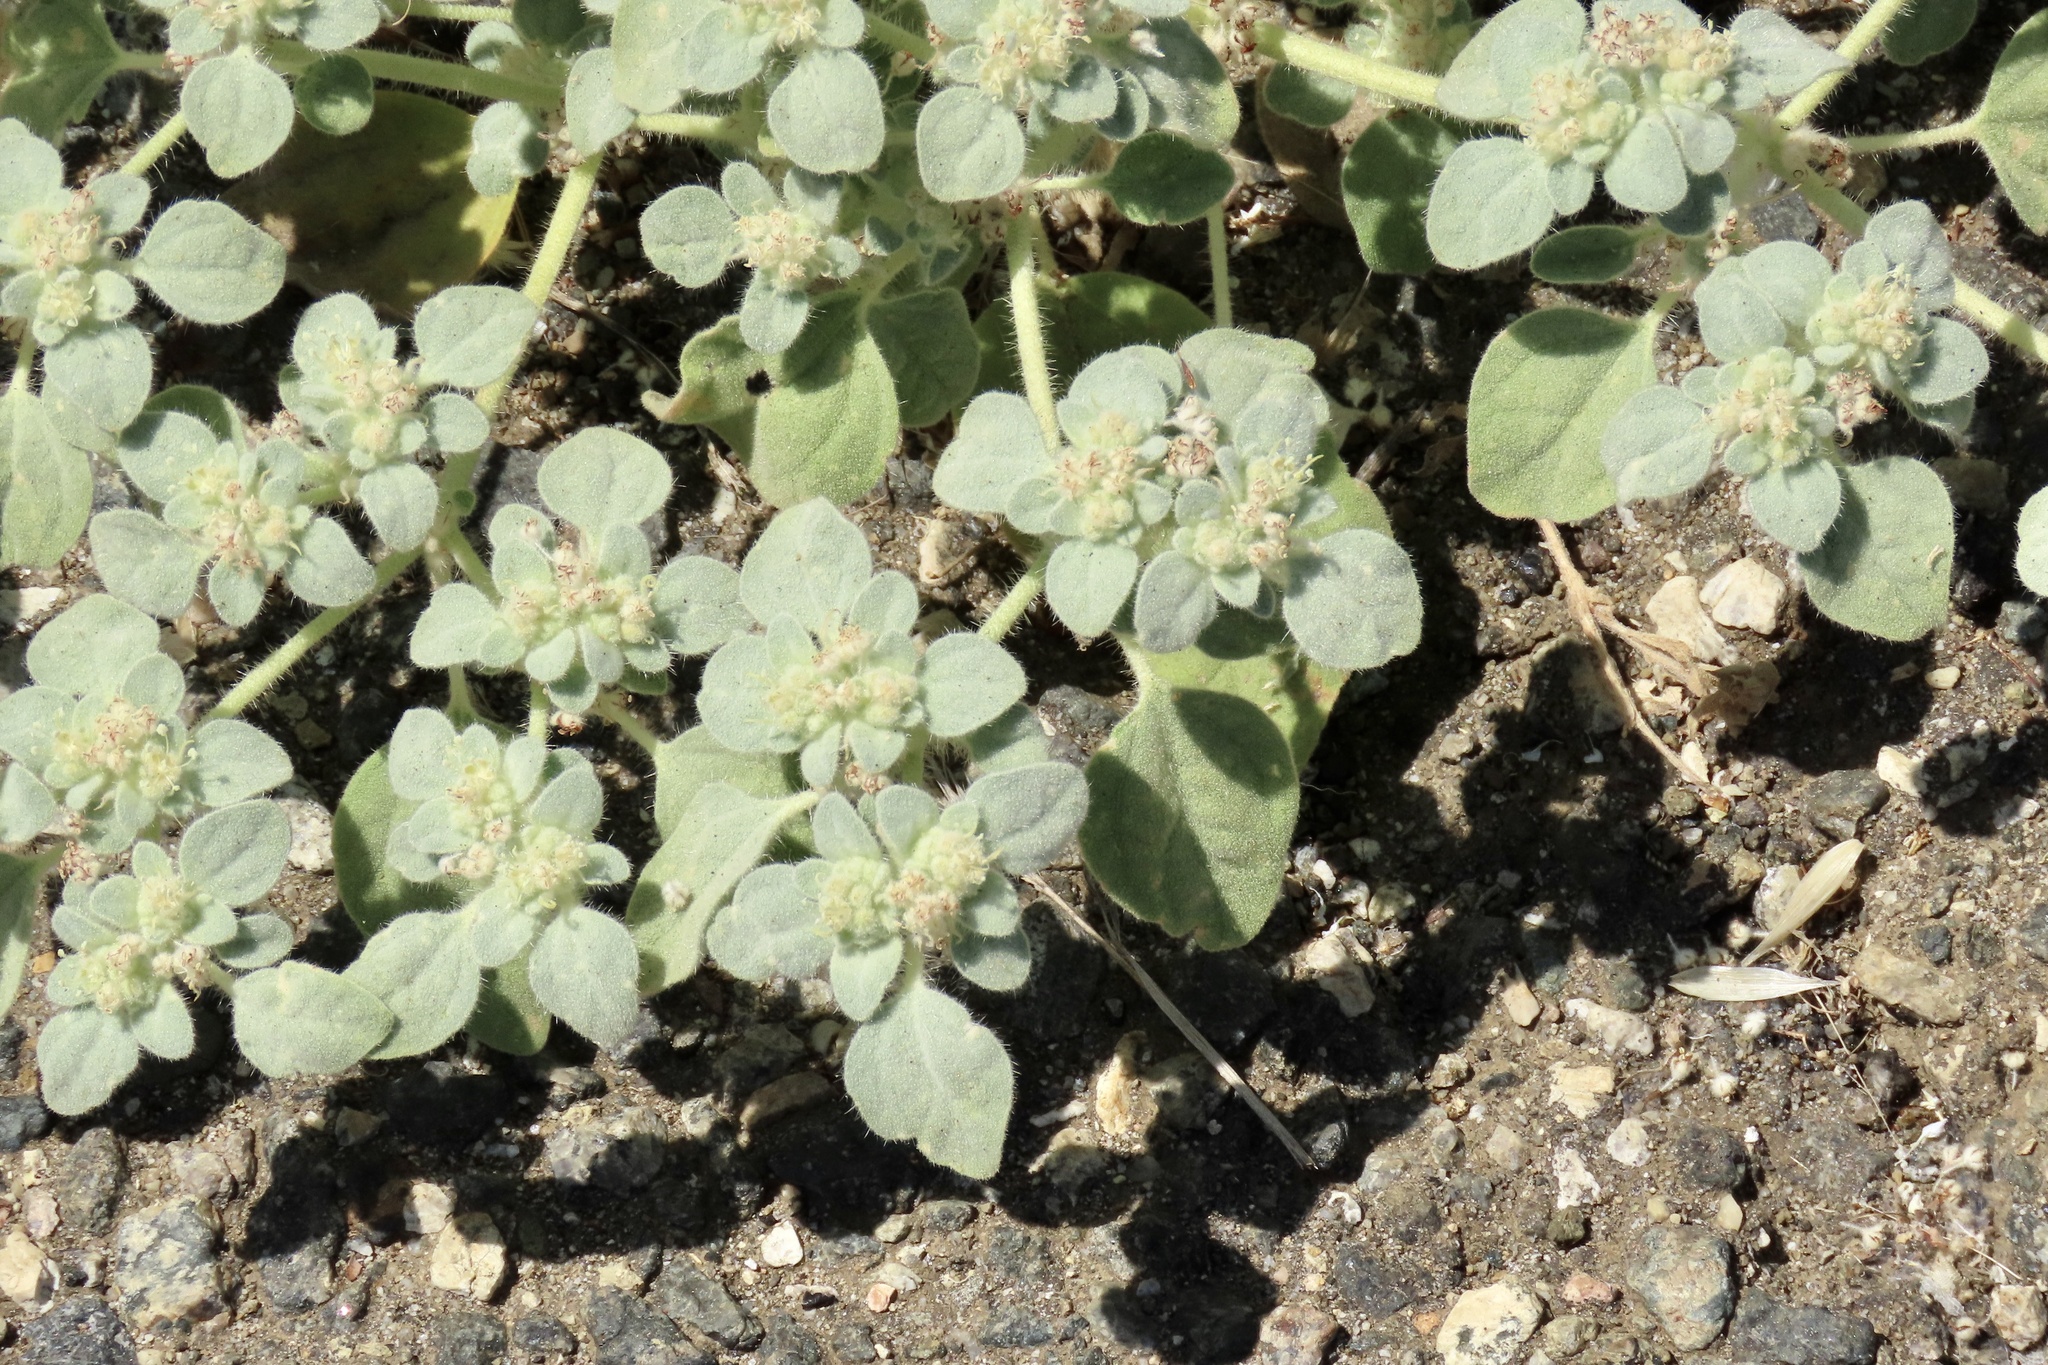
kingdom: Plantae
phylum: Tracheophyta
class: Magnoliopsida
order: Malpighiales
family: Euphorbiaceae
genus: Croton
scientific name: Croton setiger
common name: Dove weed
